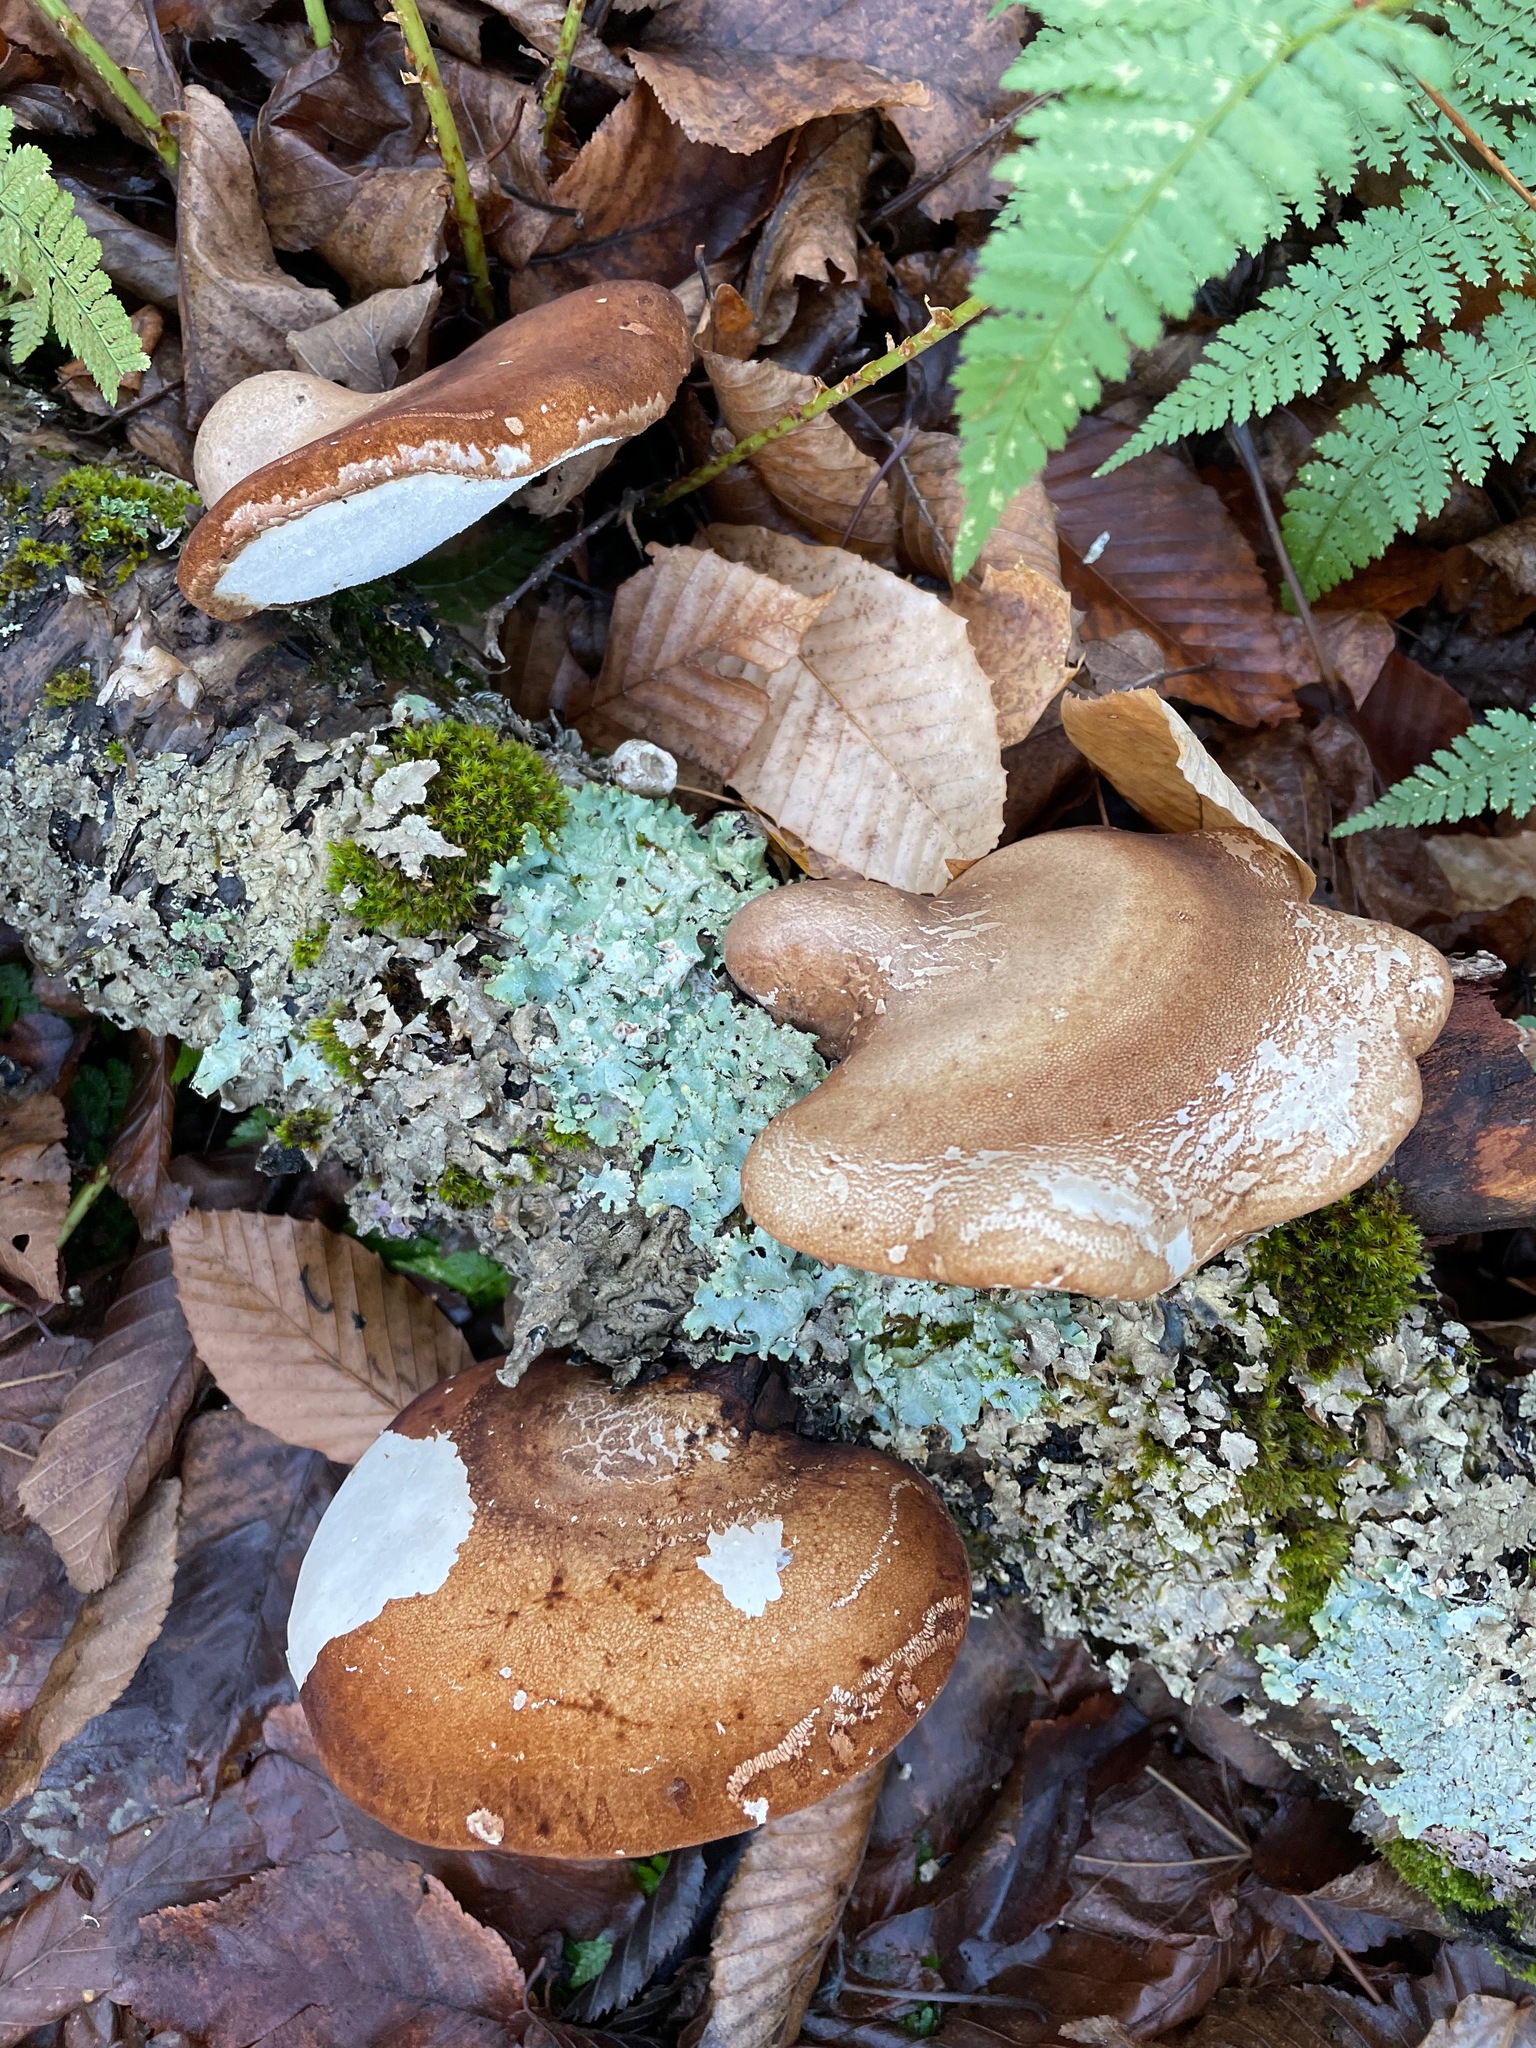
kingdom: Fungi
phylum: Basidiomycota
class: Agaricomycetes
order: Polyporales
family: Fomitopsidaceae
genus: Fomitopsis
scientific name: Fomitopsis betulina
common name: Birch polypore
